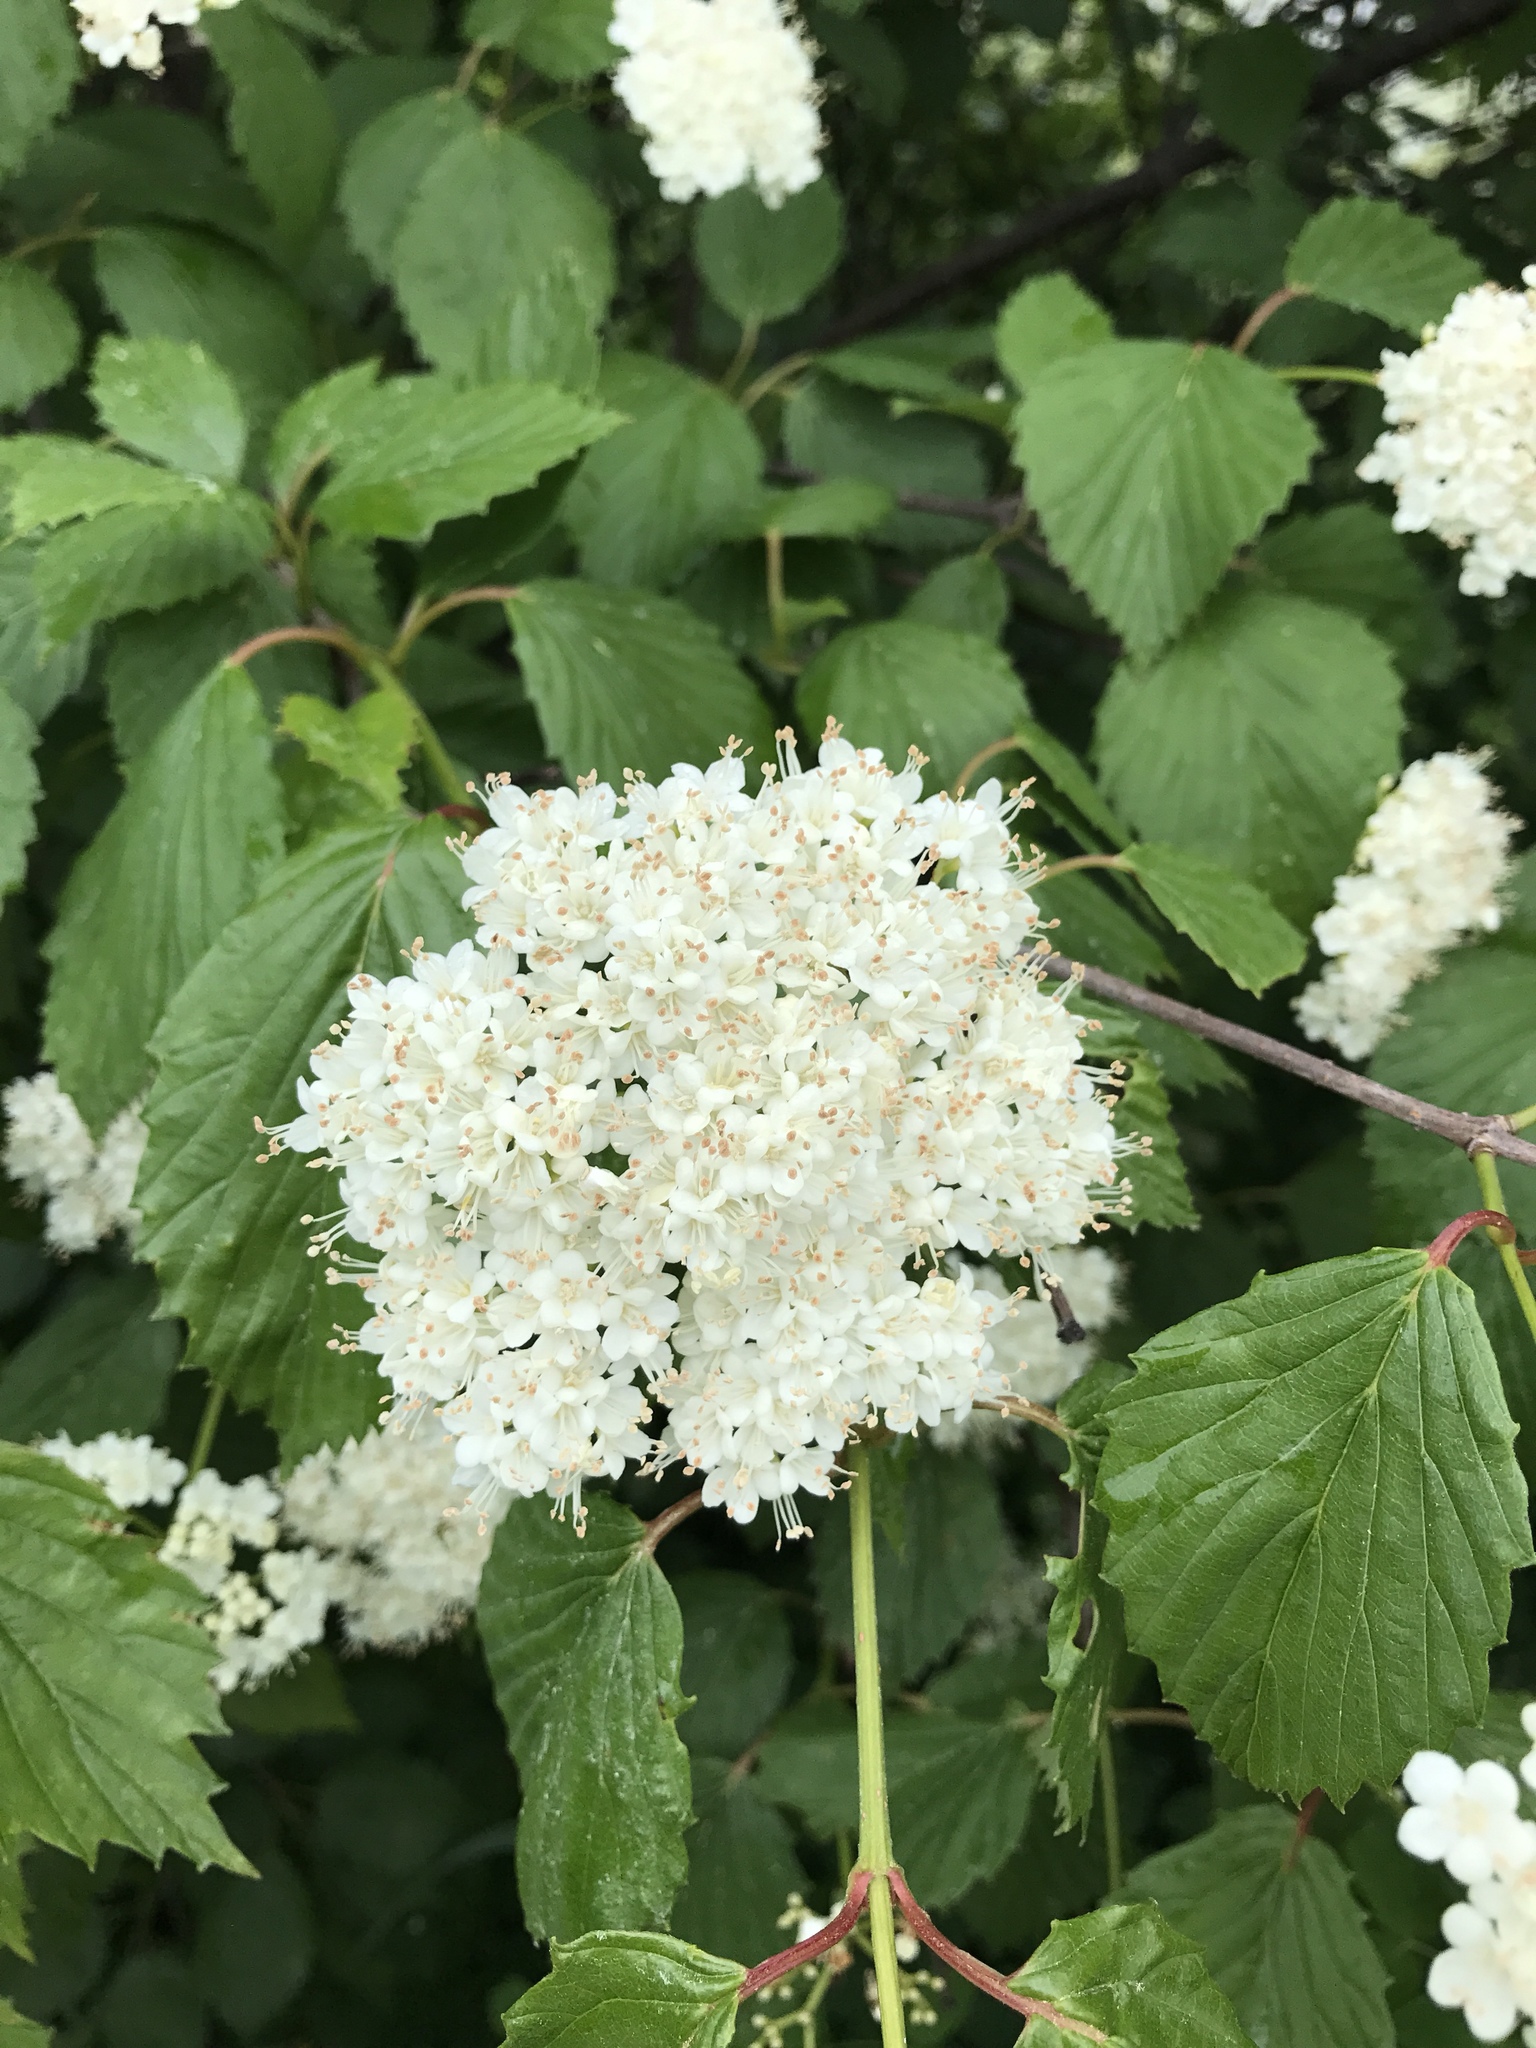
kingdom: Plantae
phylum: Tracheophyta
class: Magnoliopsida
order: Dipsacales
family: Viburnaceae
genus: Viburnum
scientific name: Viburnum recognitum
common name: Northern arrow-wood
